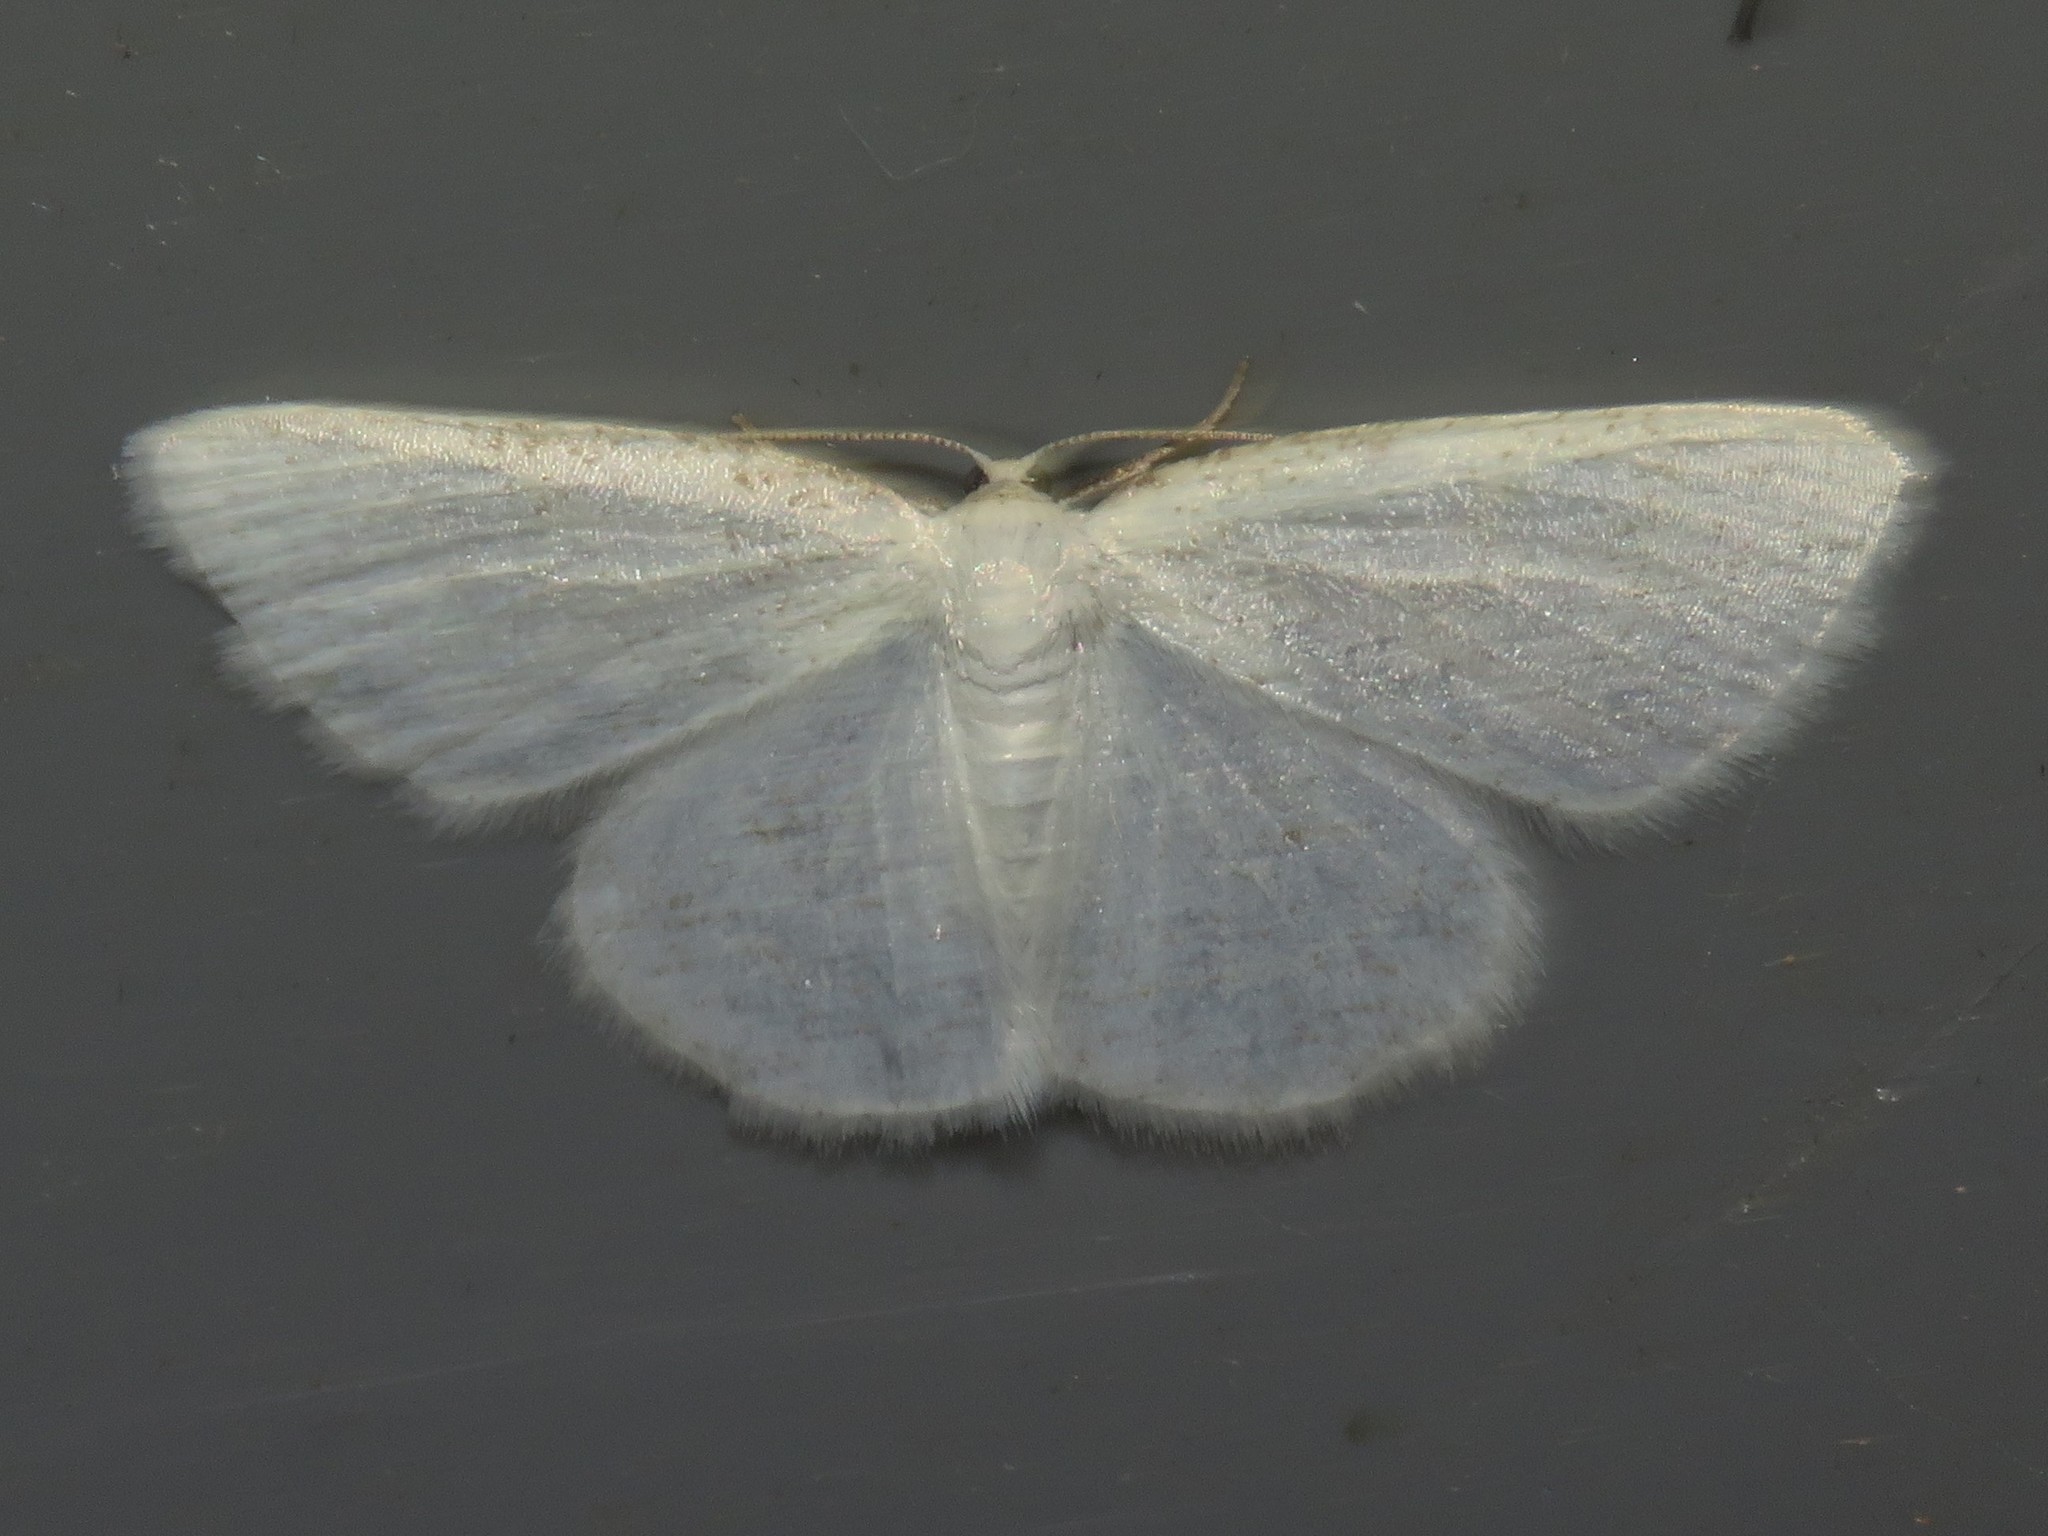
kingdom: Animalia
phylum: Arthropoda
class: Insecta
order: Lepidoptera
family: Geometridae
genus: Protitame
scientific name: Protitame virginalis
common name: Virgin moth
